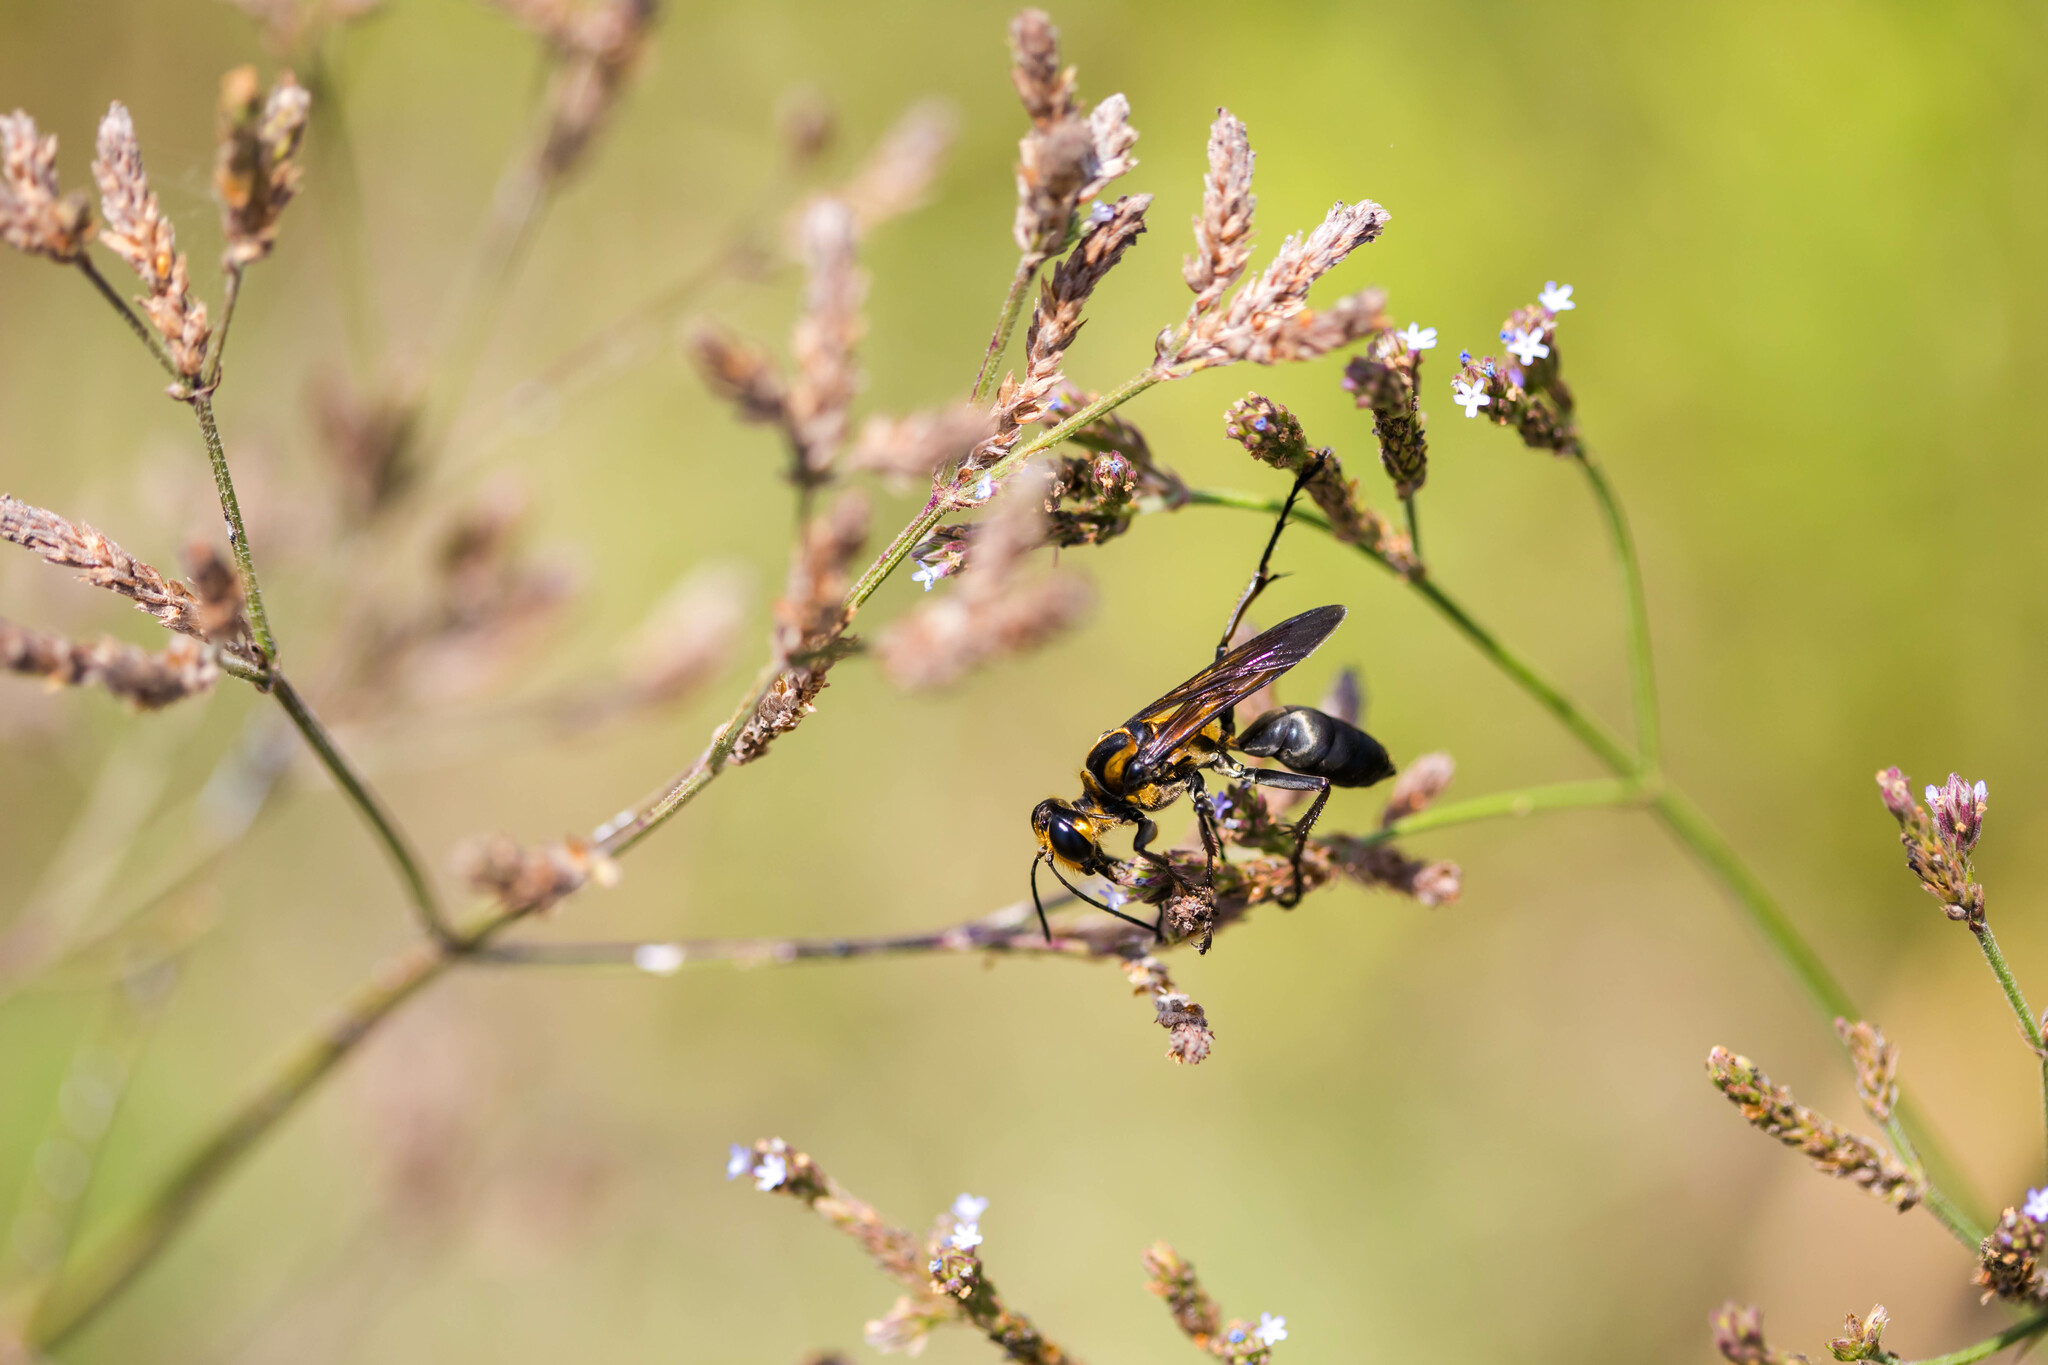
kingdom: Animalia
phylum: Arthropoda
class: Insecta
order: Hymenoptera
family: Sphecidae
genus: Sphex
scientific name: Sphex habenus
